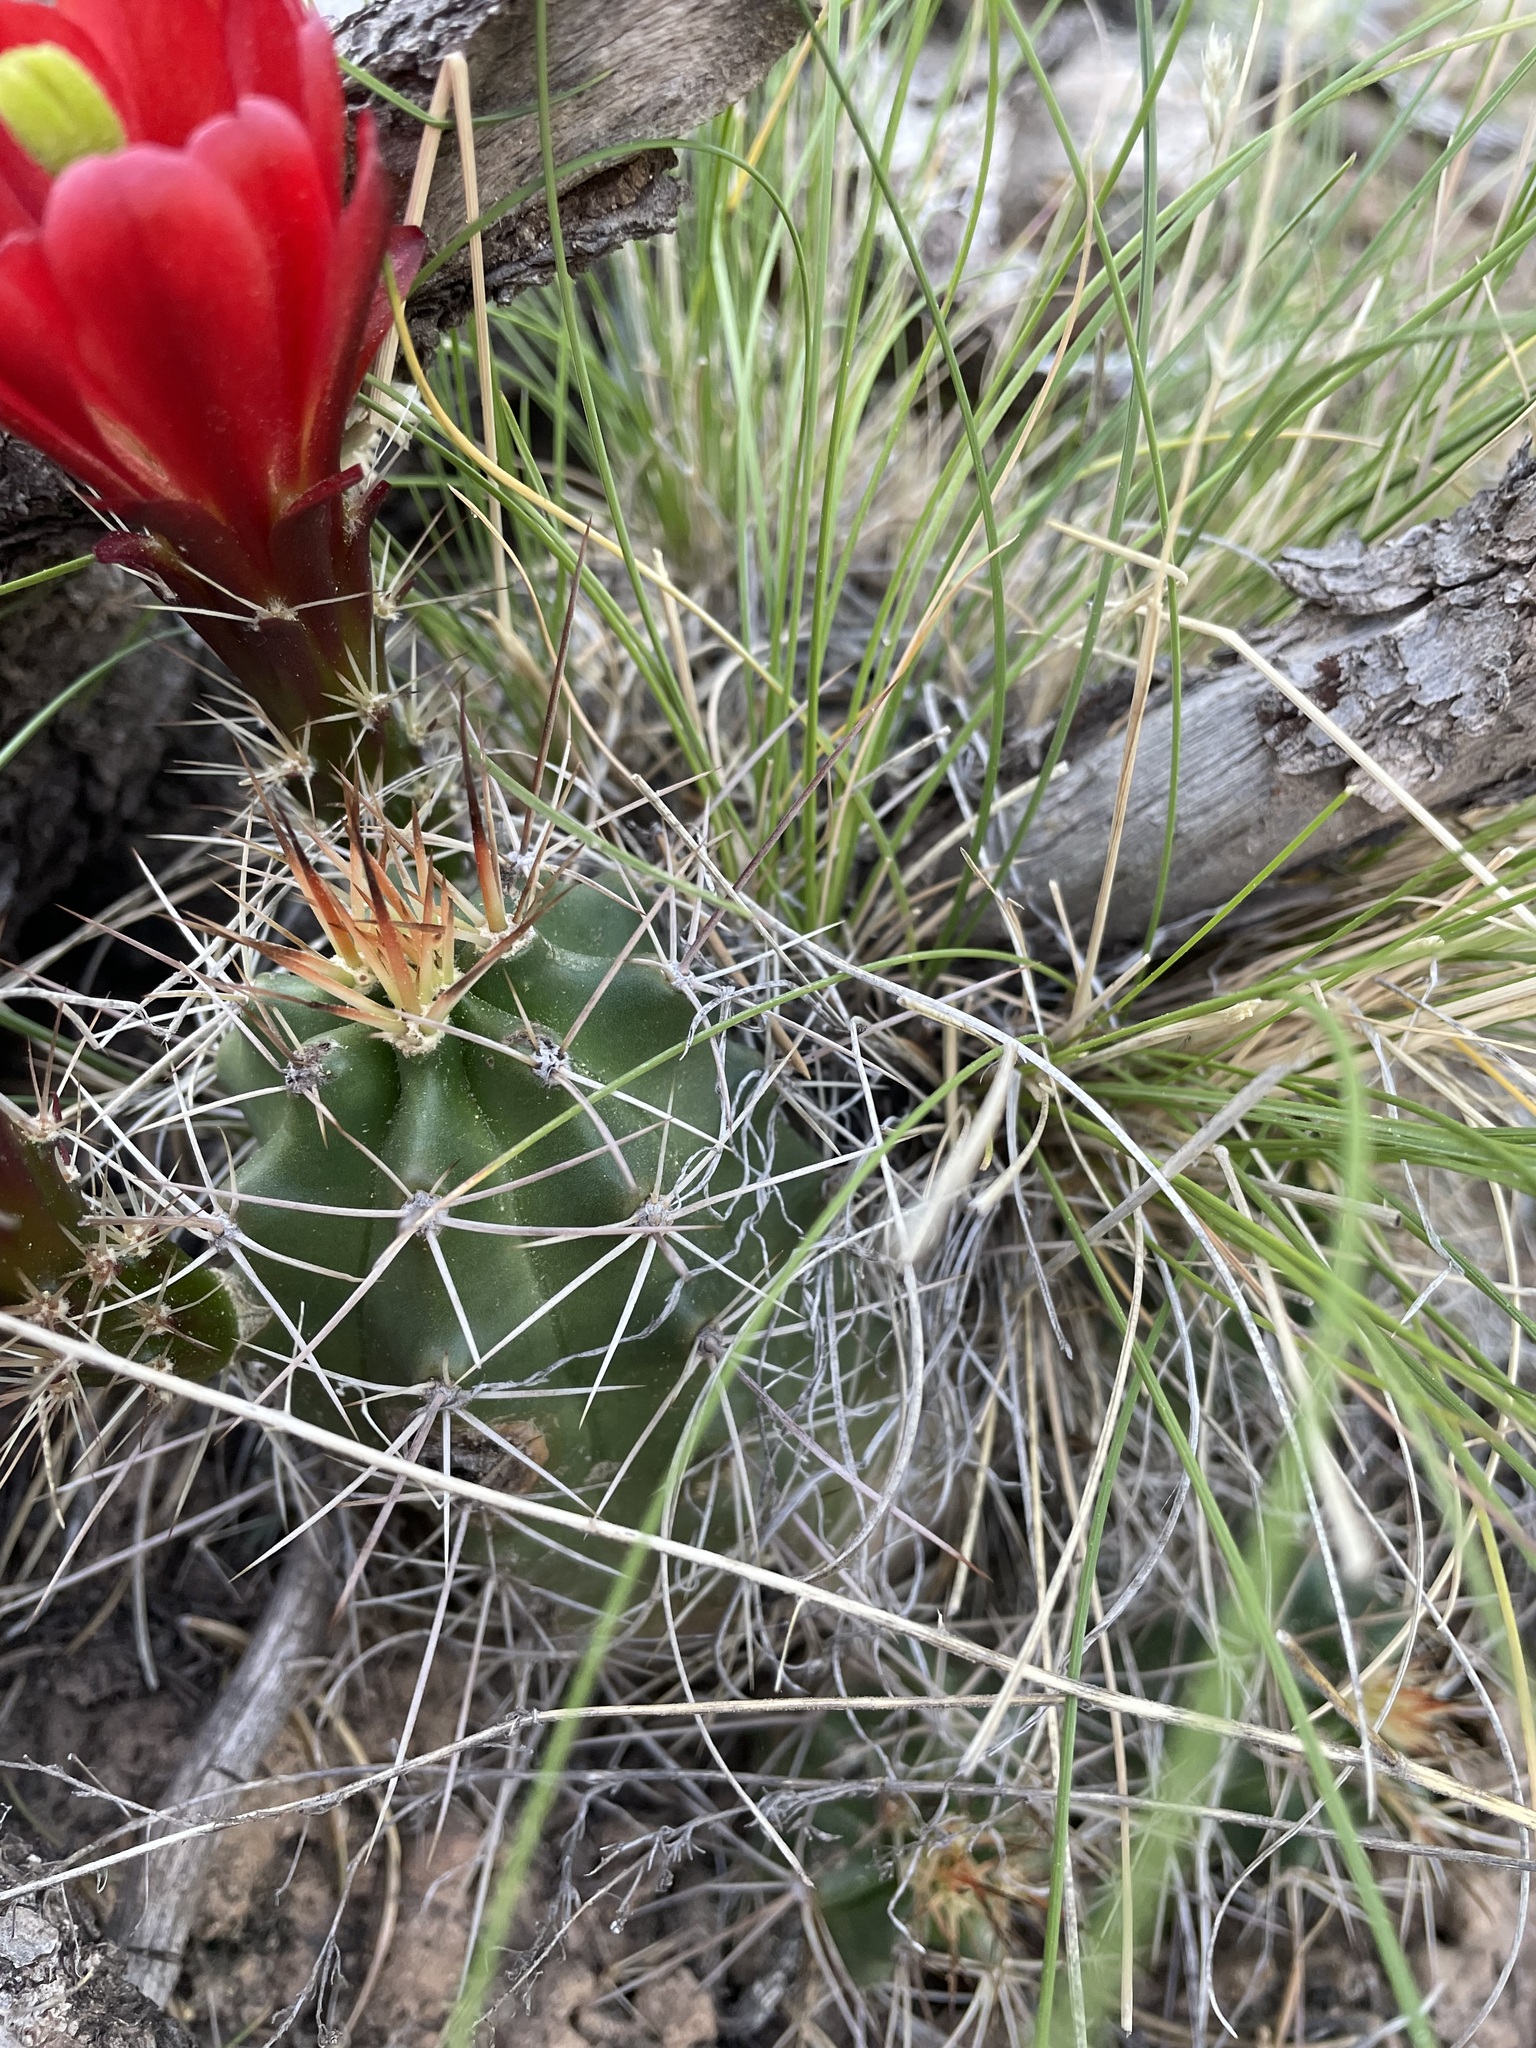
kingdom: Plantae
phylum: Tracheophyta
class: Magnoliopsida
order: Caryophyllales
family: Cactaceae
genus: Echinocereus
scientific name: Echinocereus triglochidiatus
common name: Claretcup hedgehog
